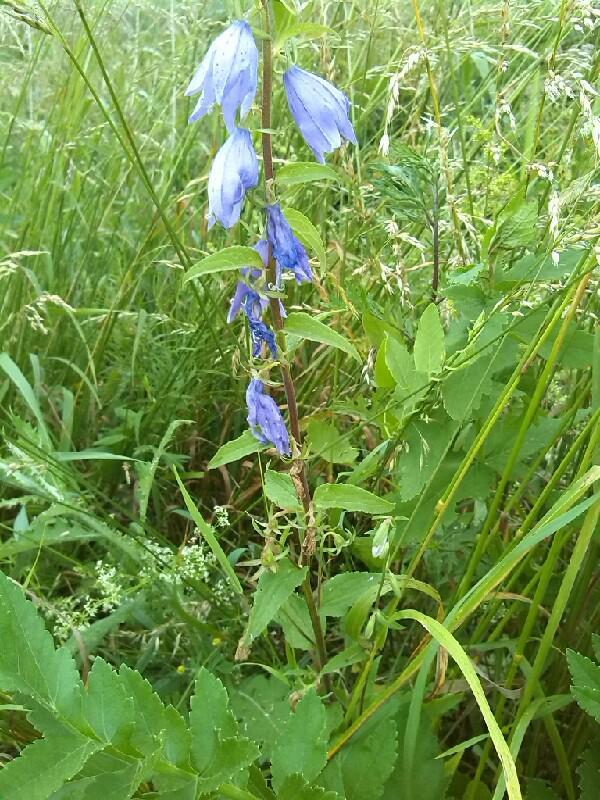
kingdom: Plantae
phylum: Tracheophyta
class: Magnoliopsida
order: Asterales
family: Campanulaceae
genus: Campanula
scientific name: Campanula rapunculoides
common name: Creeping bellflower
